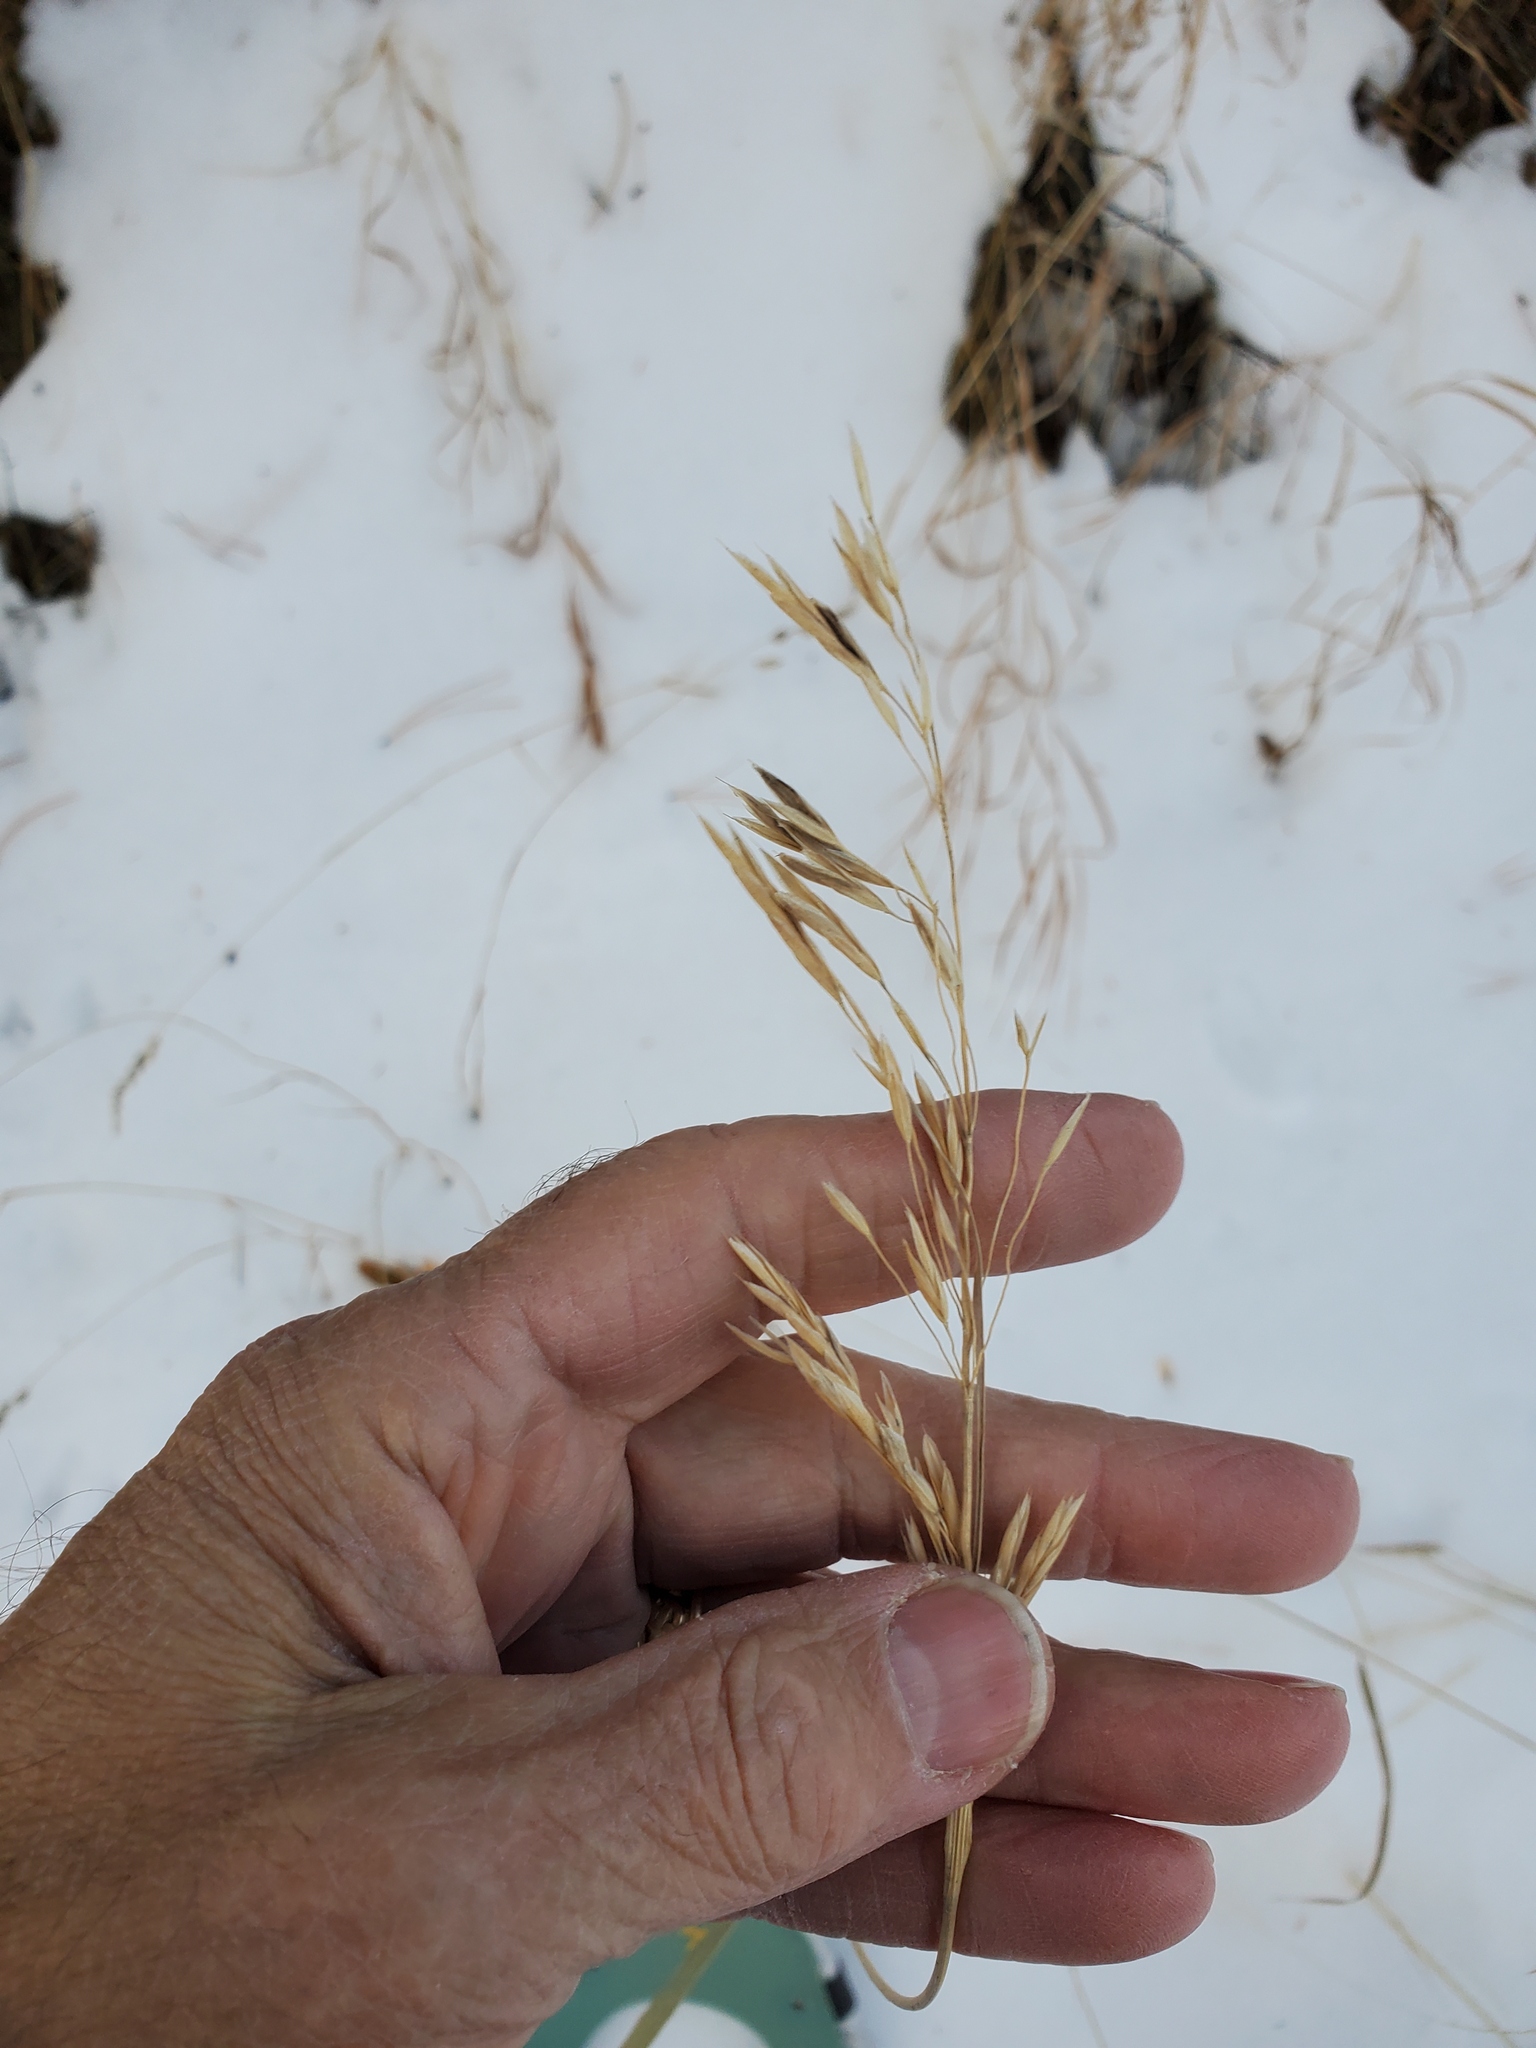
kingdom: Plantae
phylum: Tracheophyta
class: Liliopsida
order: Poales
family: Poaceae
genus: Bromus
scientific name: Bromus inermis
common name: Smooth brome
